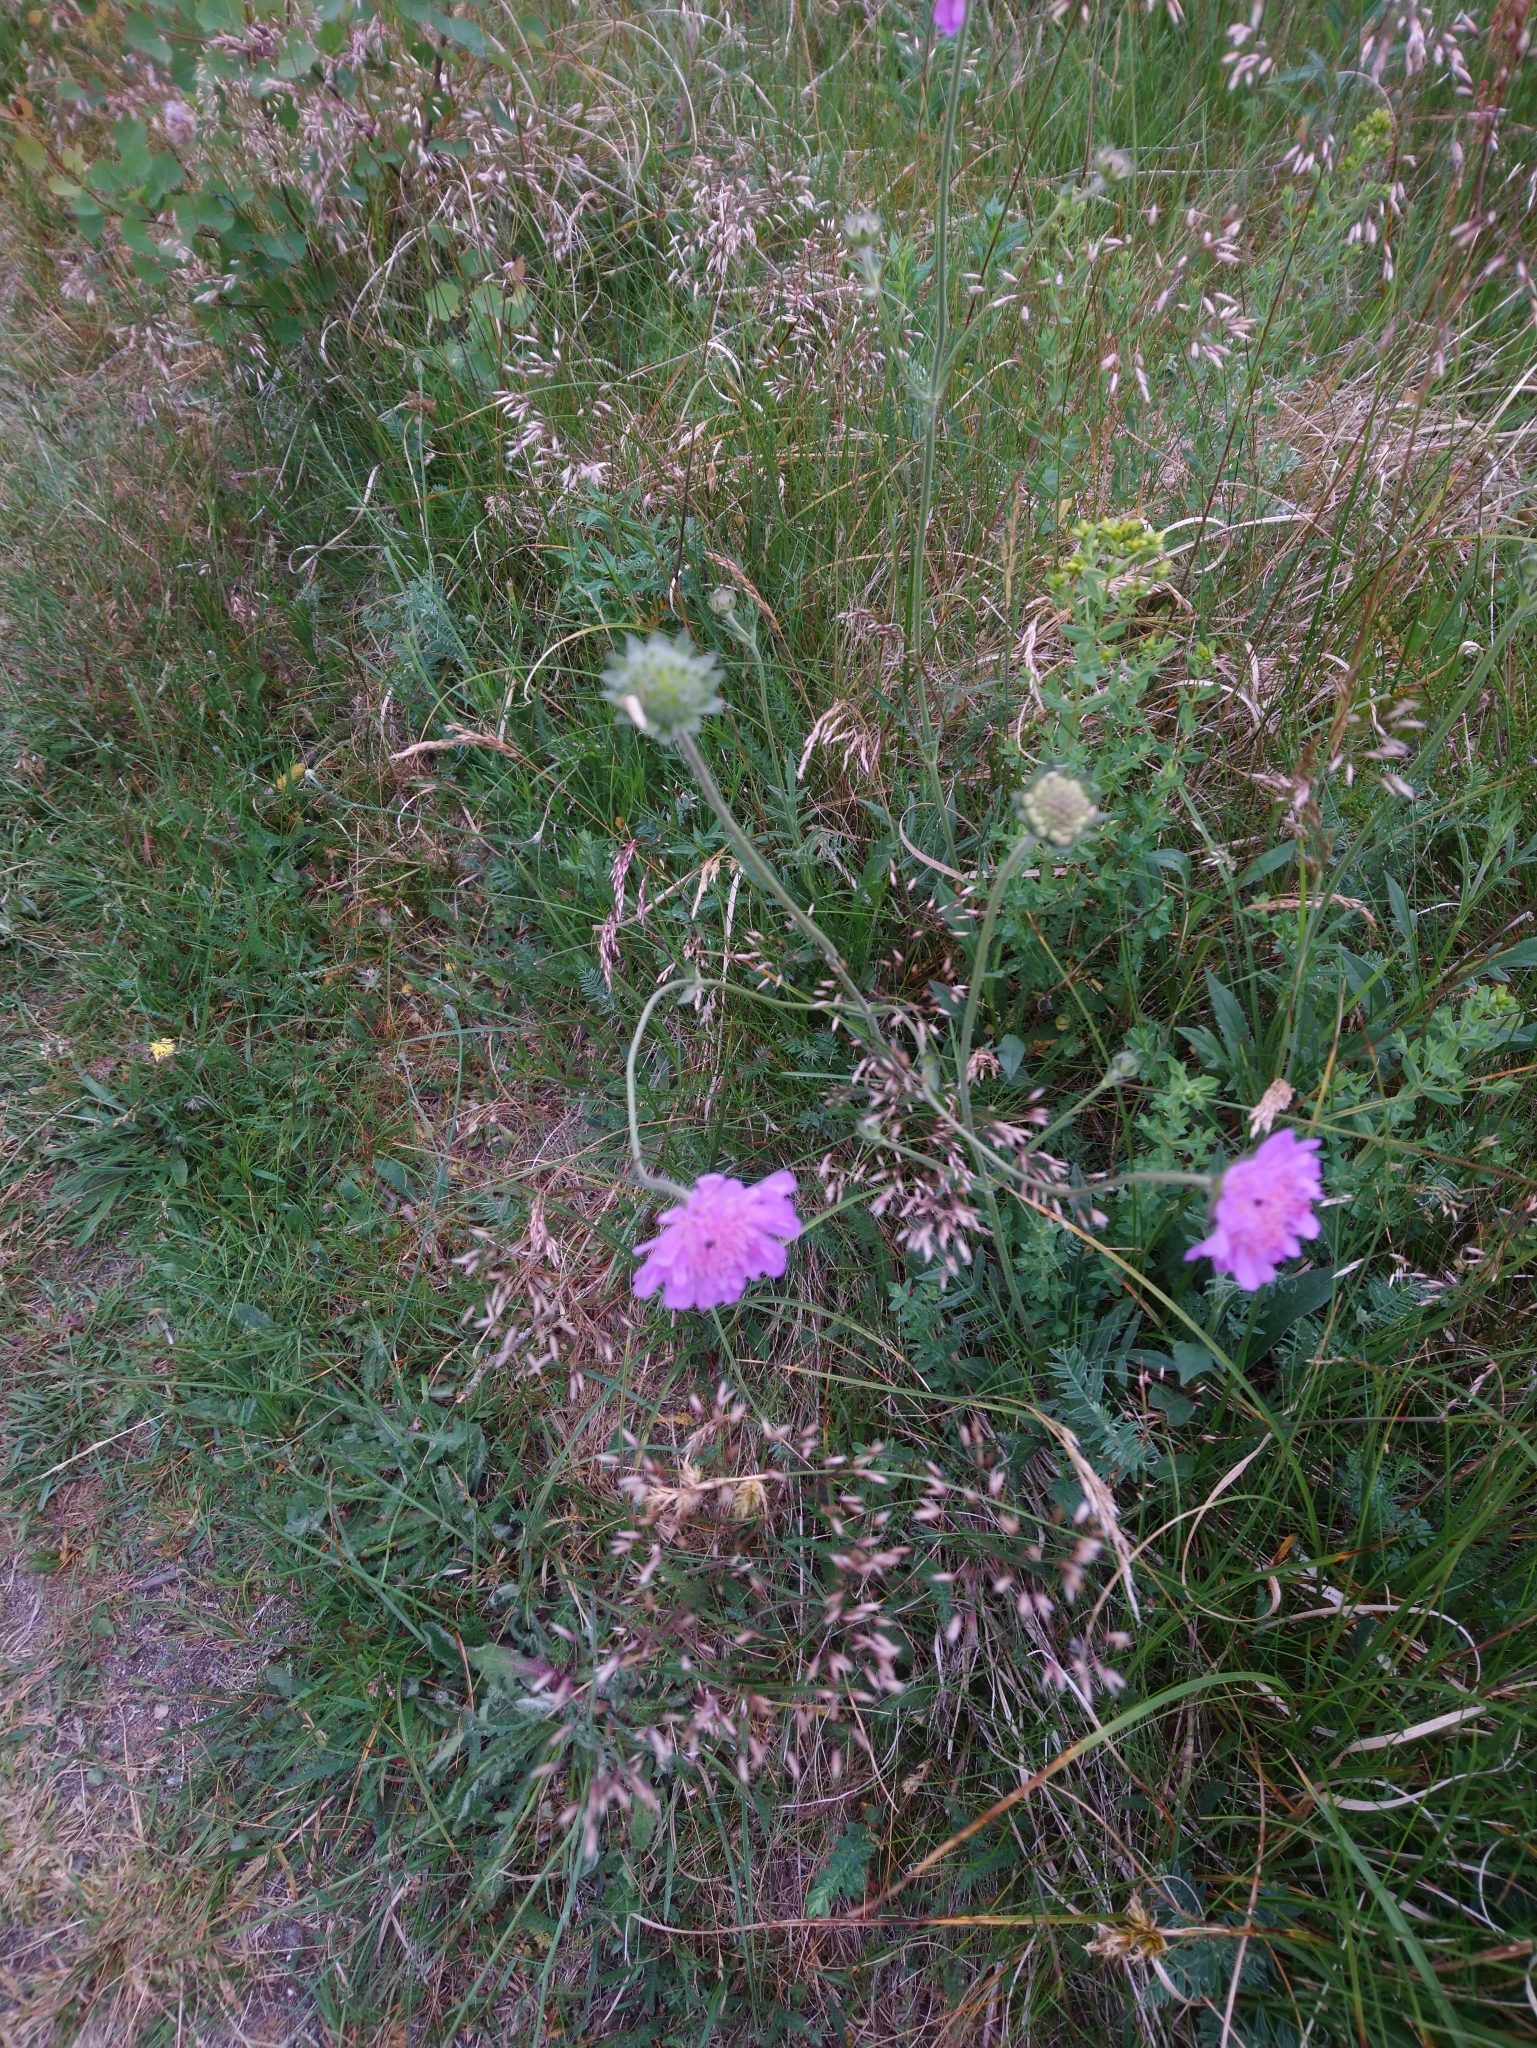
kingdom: Plantae
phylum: Tracheophyta
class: Magnoliopsida
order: Dipsacales
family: Caprifoliaceae
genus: Knautia
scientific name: Knautia arvensis
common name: Field scabiosa
